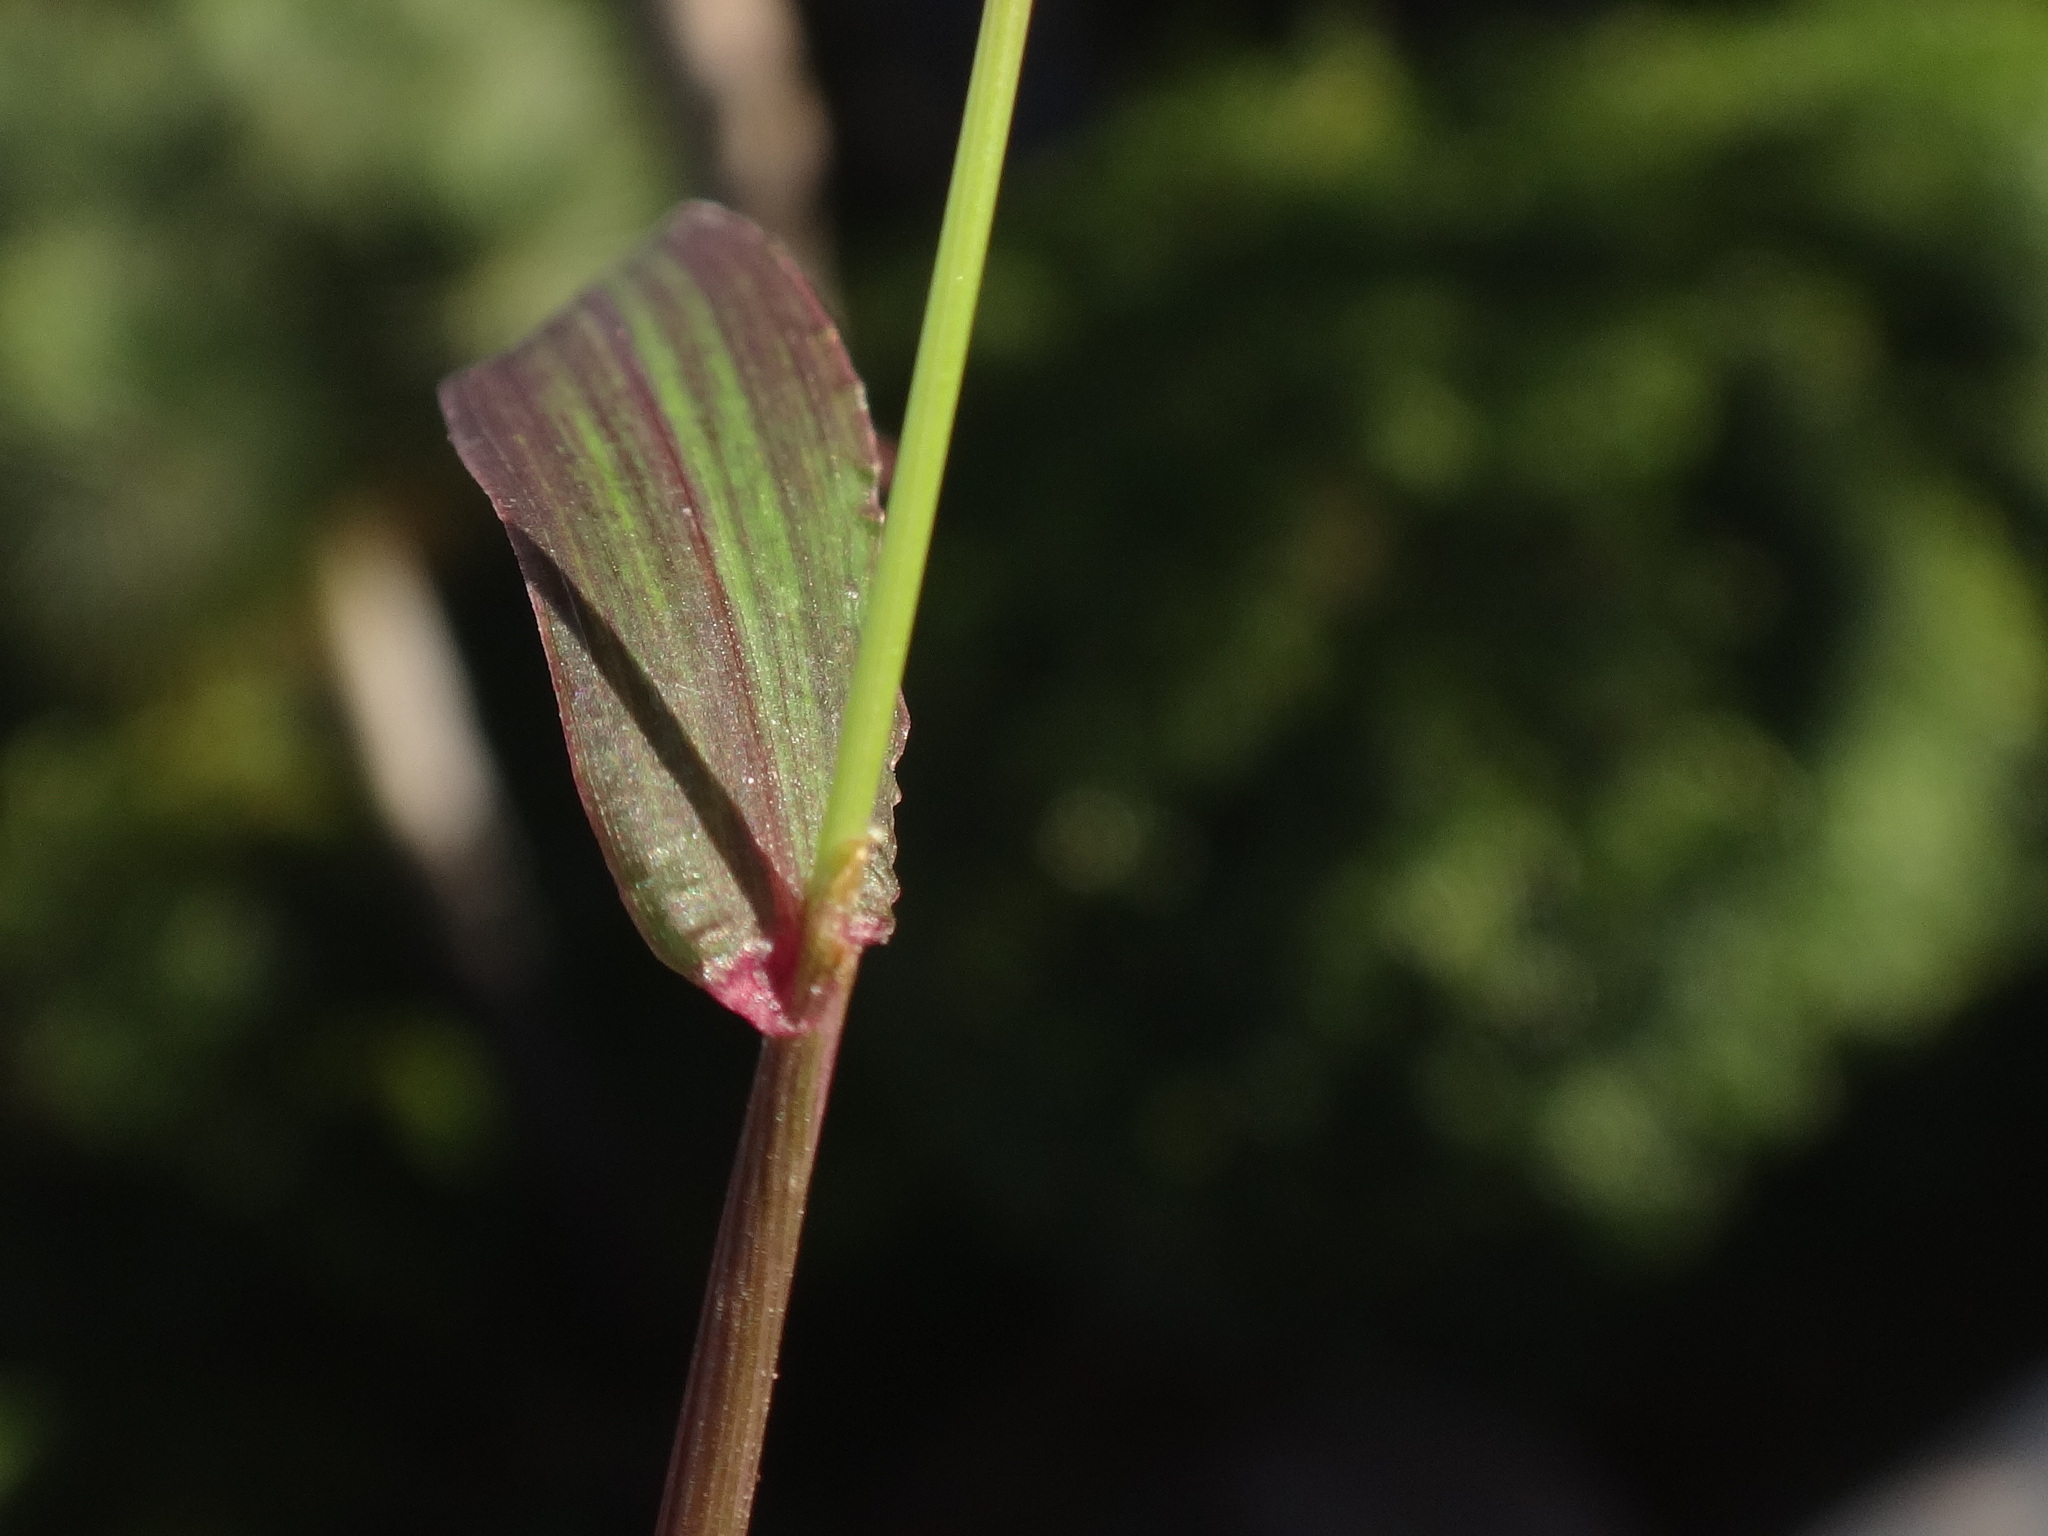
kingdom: Plantae
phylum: Tracheophyta
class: Liliopsida
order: Poales
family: Poaceae
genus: Cynodon
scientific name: Cynodon dactylon
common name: Bermuda grass
